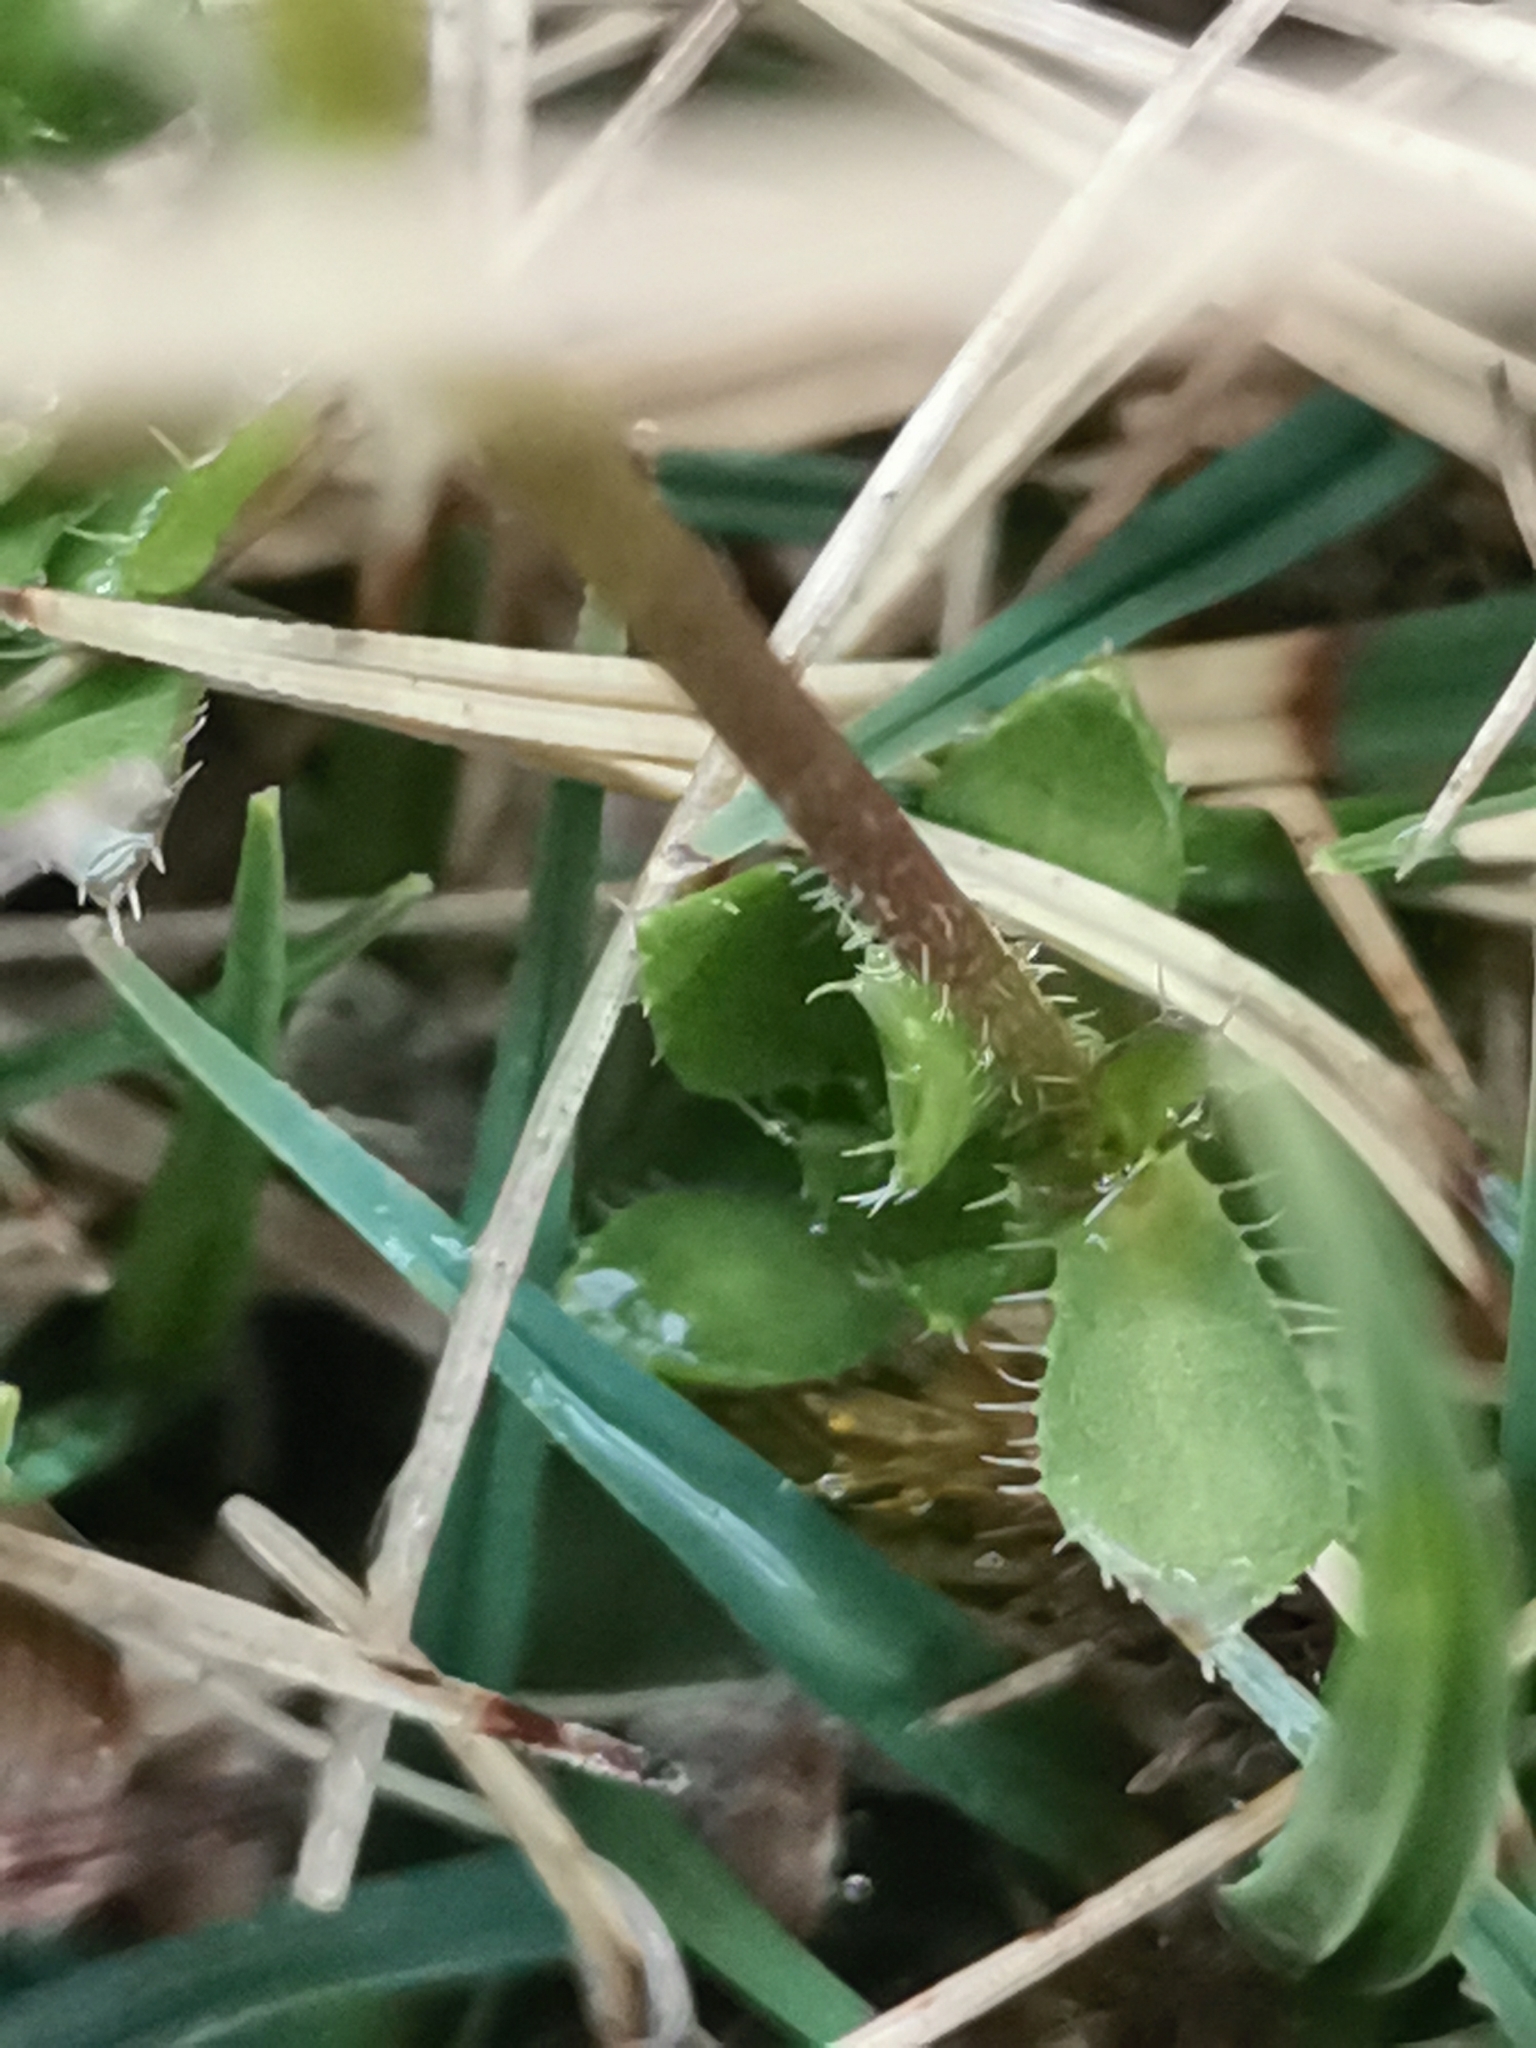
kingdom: Plantae
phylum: Tracheophyta
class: Magnoliopsida
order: Brassicales
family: Brassicaceae
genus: Arabis
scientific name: Arabis scopoliana
